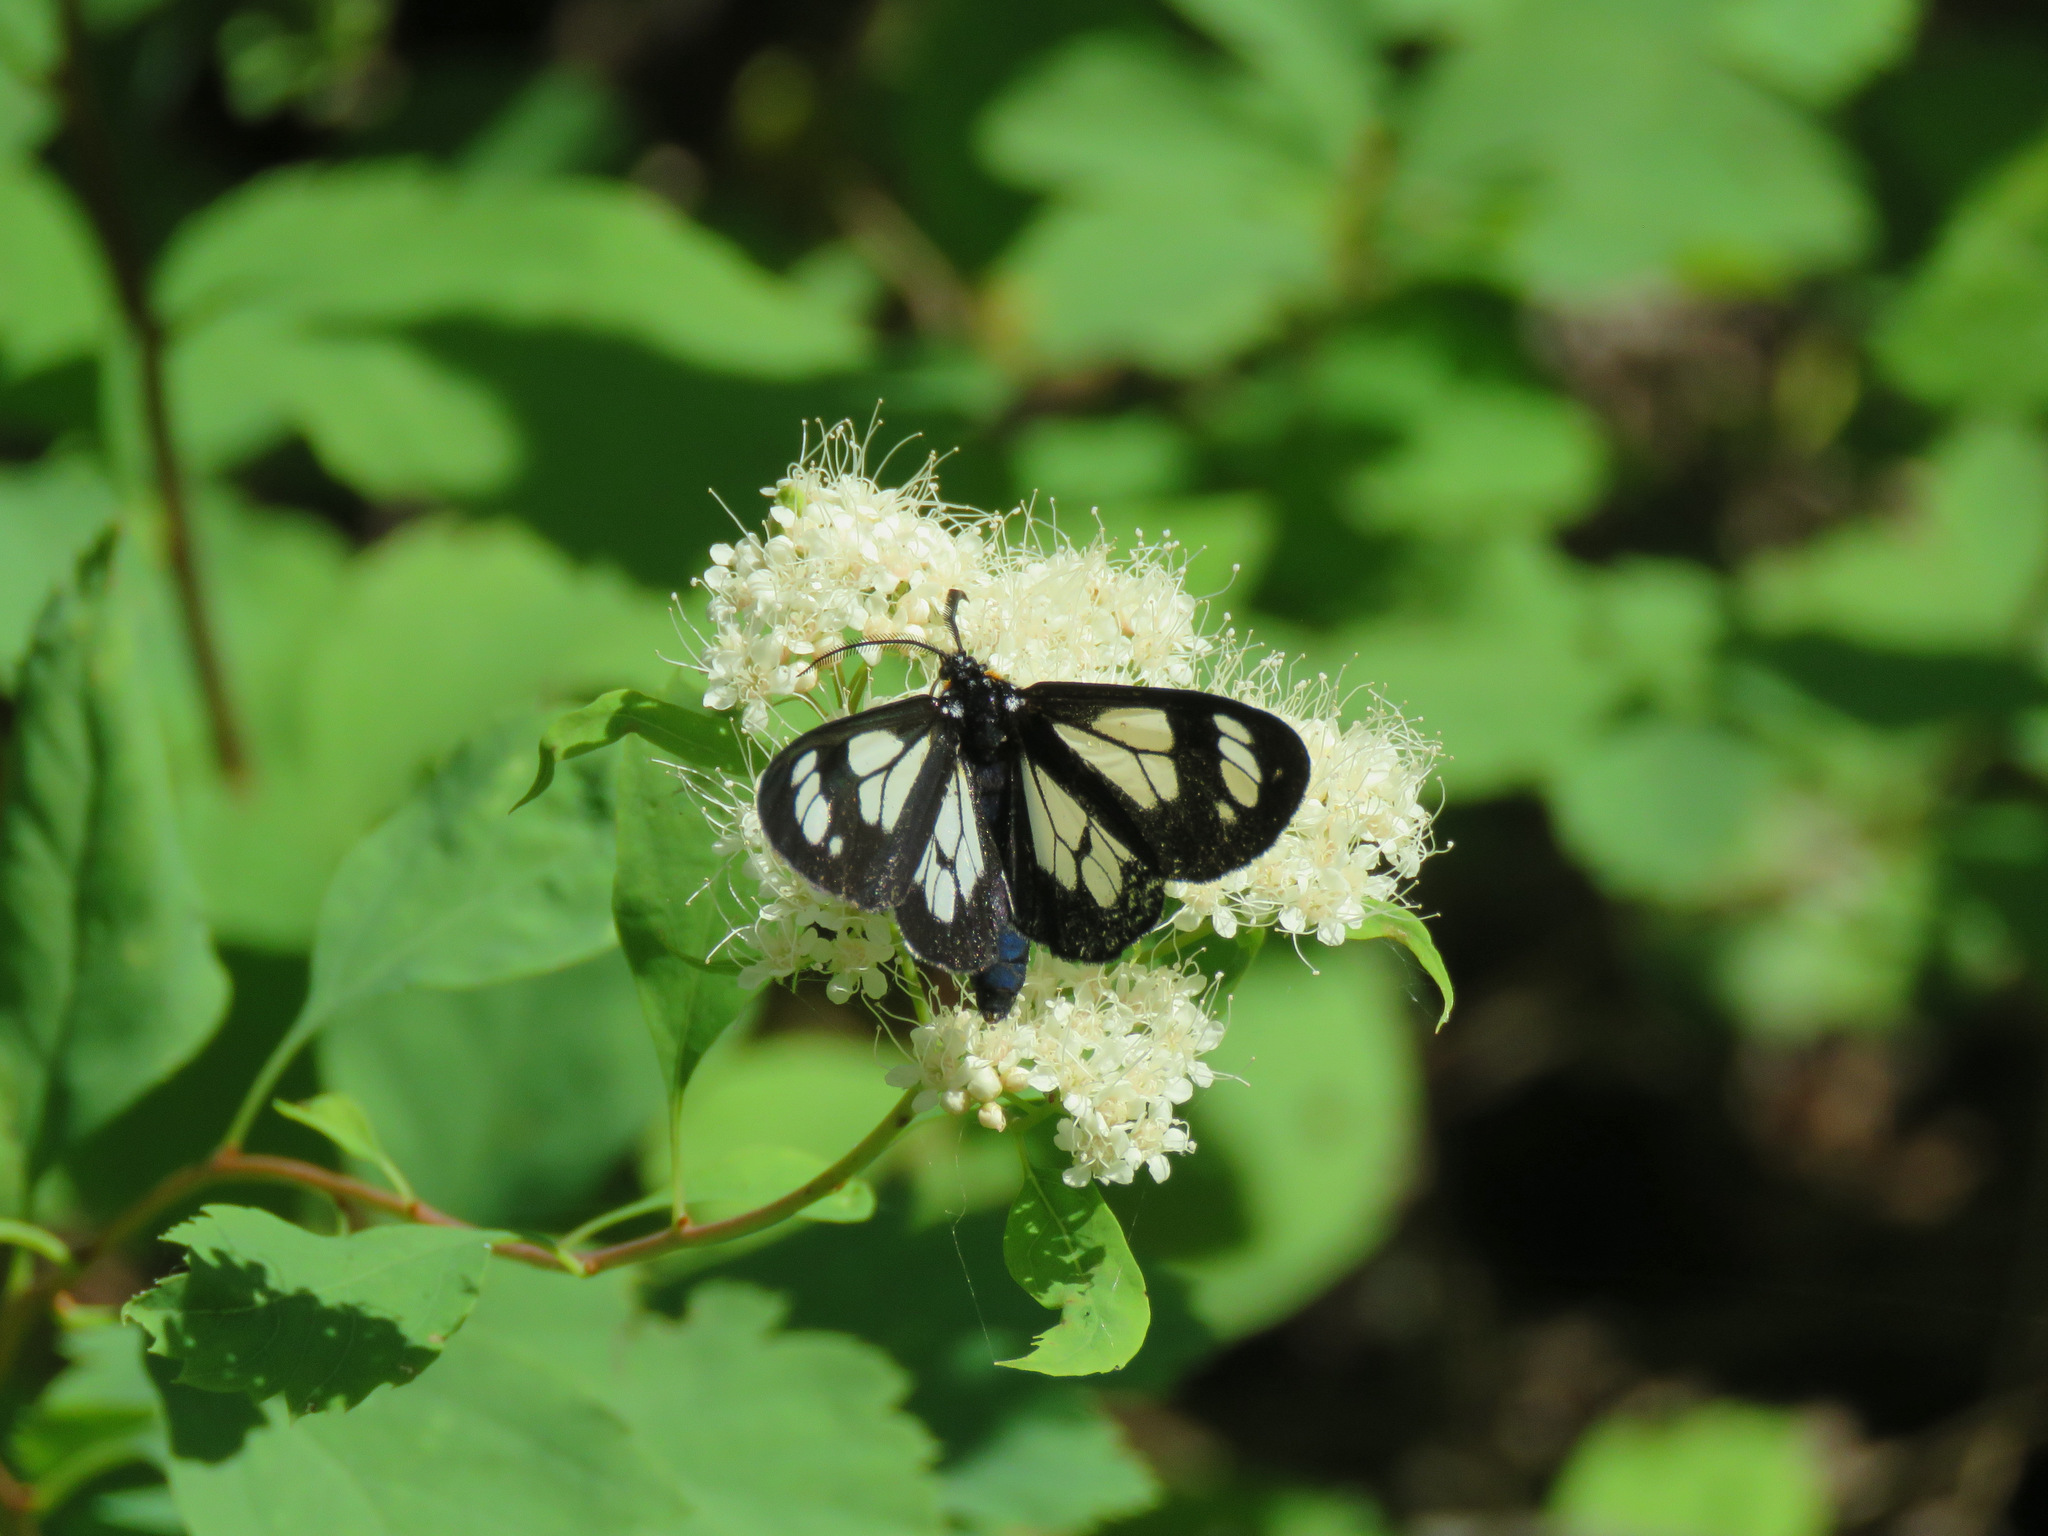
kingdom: Animalia
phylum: Arthropoda
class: Insecta
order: Lepidoptera
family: Erebidae
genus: Gnophaela
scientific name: Gnophaela vermiculata
